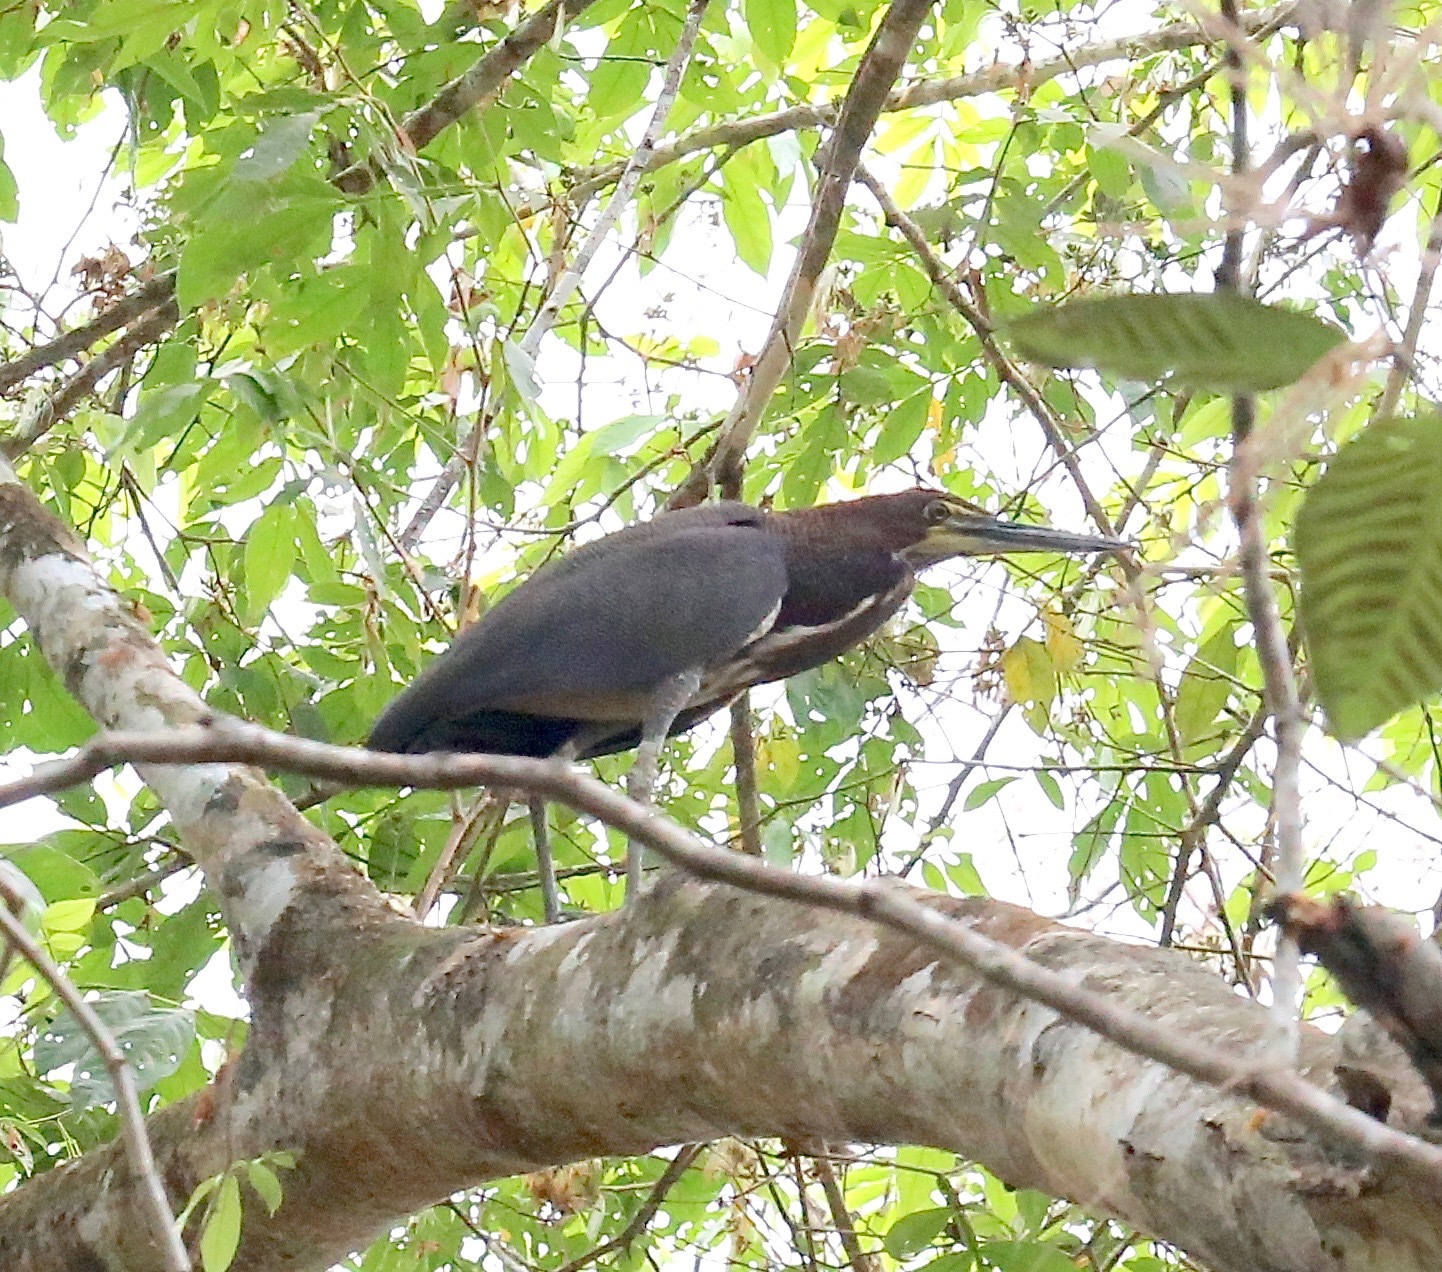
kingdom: Animalia
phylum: Chordata
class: Aves
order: Pelecaniformes
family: Ardeidae
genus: Tigrisoma
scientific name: Tigrisoma lineatum
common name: Rufescent tiger-heron
